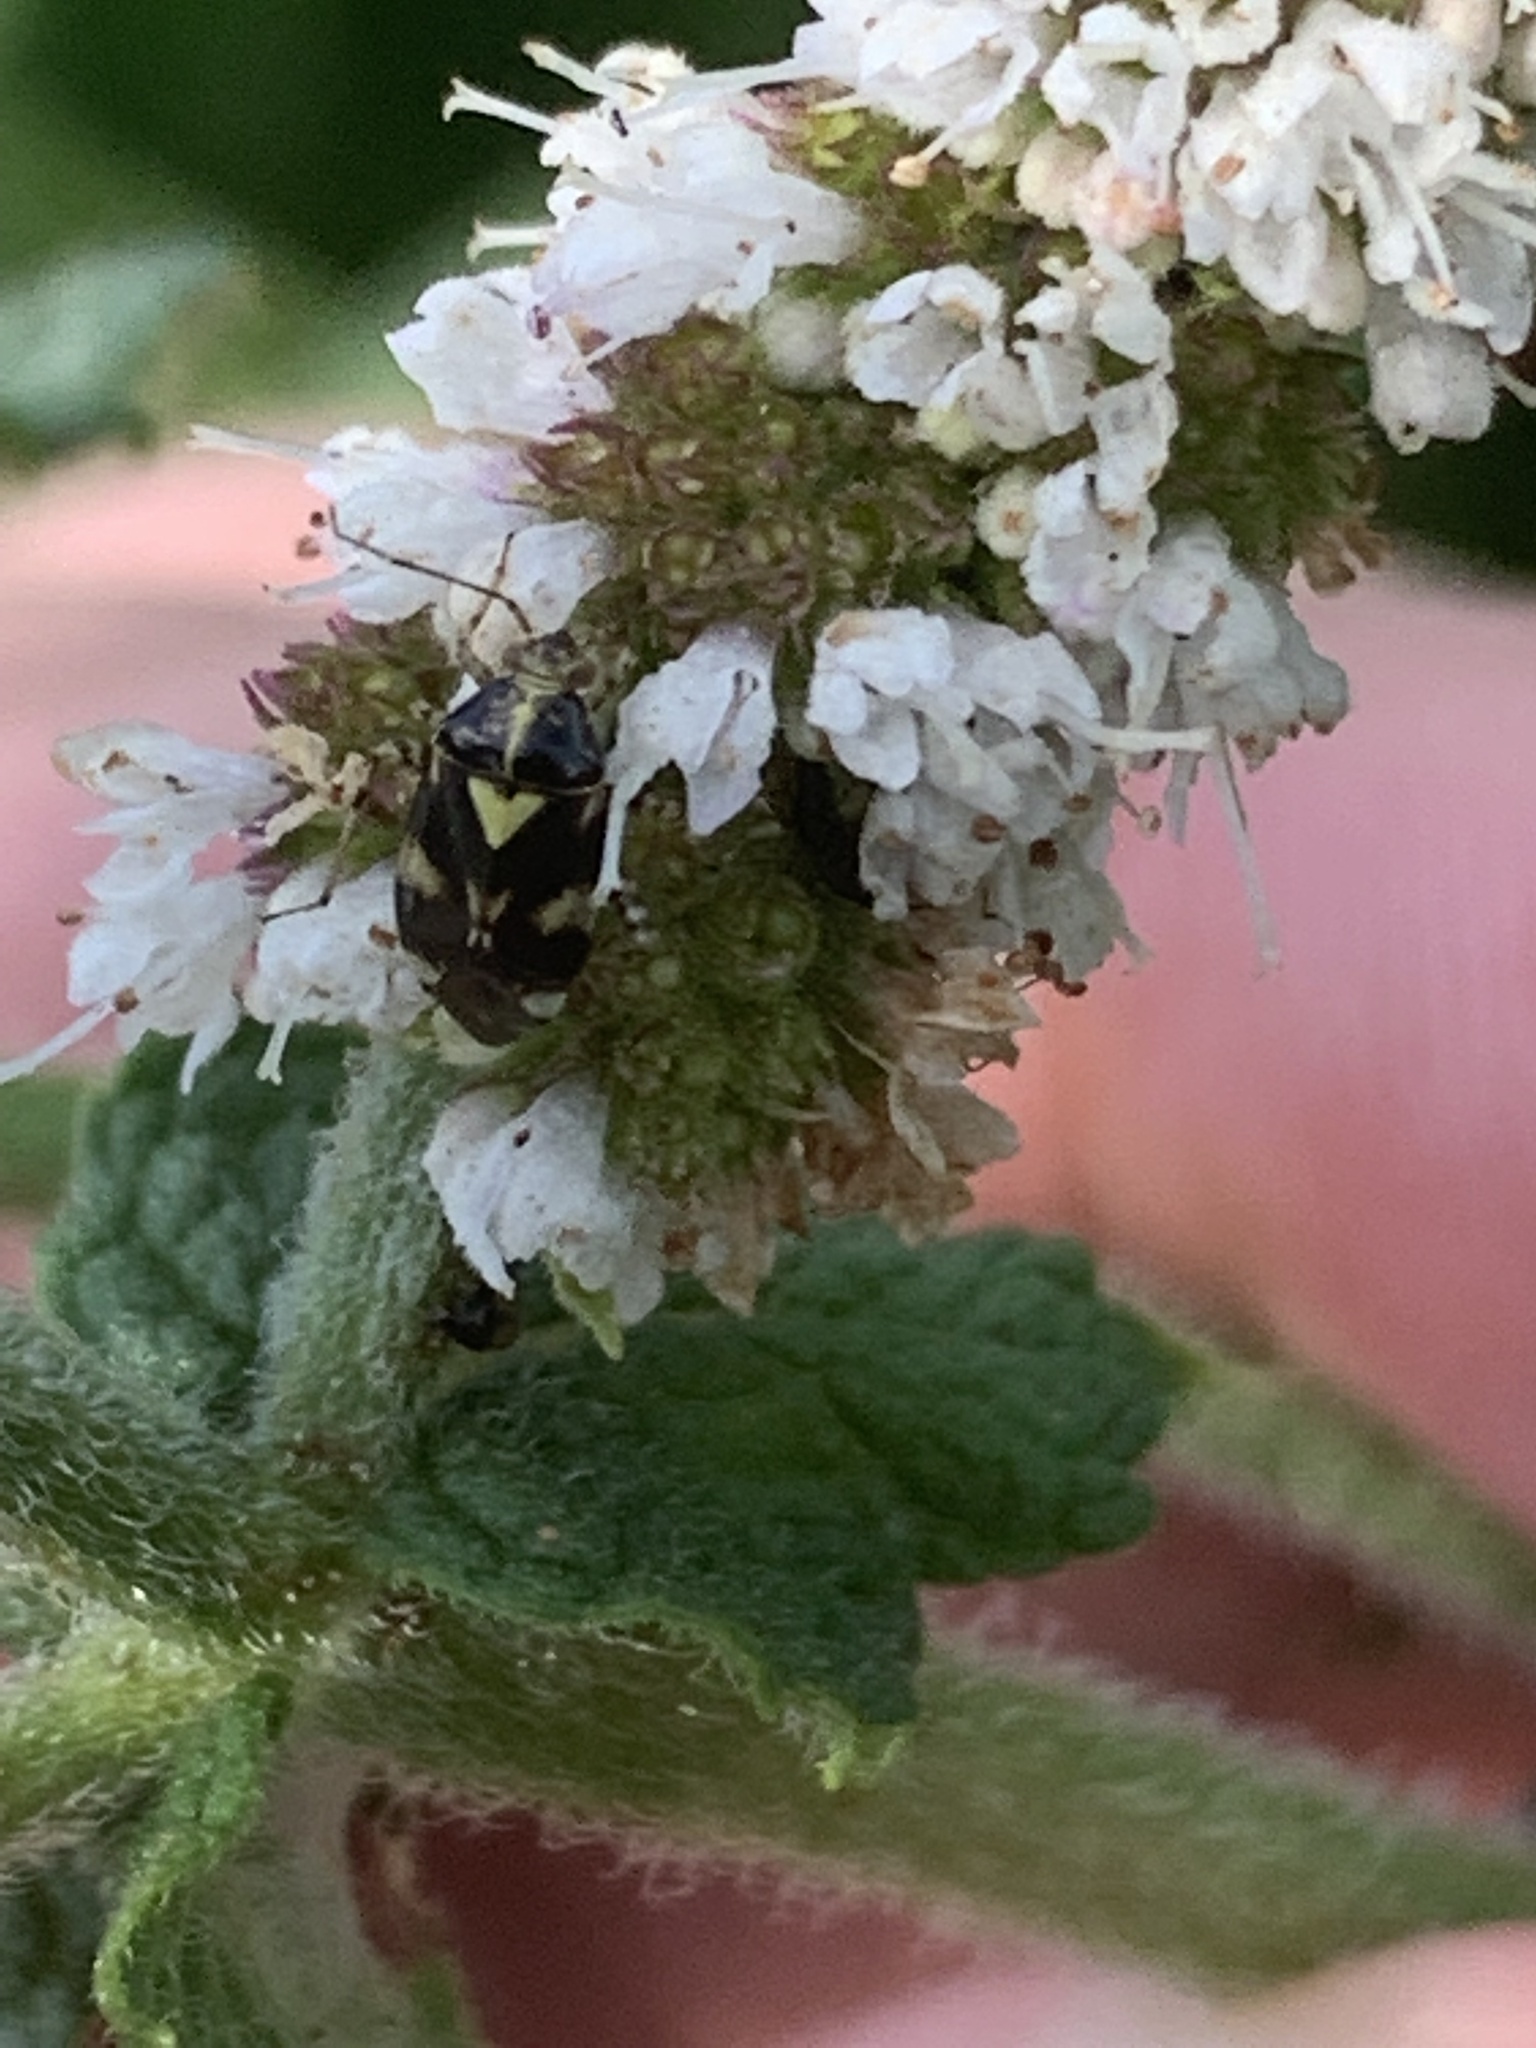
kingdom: Animalia
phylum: Arthropoda
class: Insecta
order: Hemiptera
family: Miridae
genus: Liocoris
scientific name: Liocoris tripustulatus
